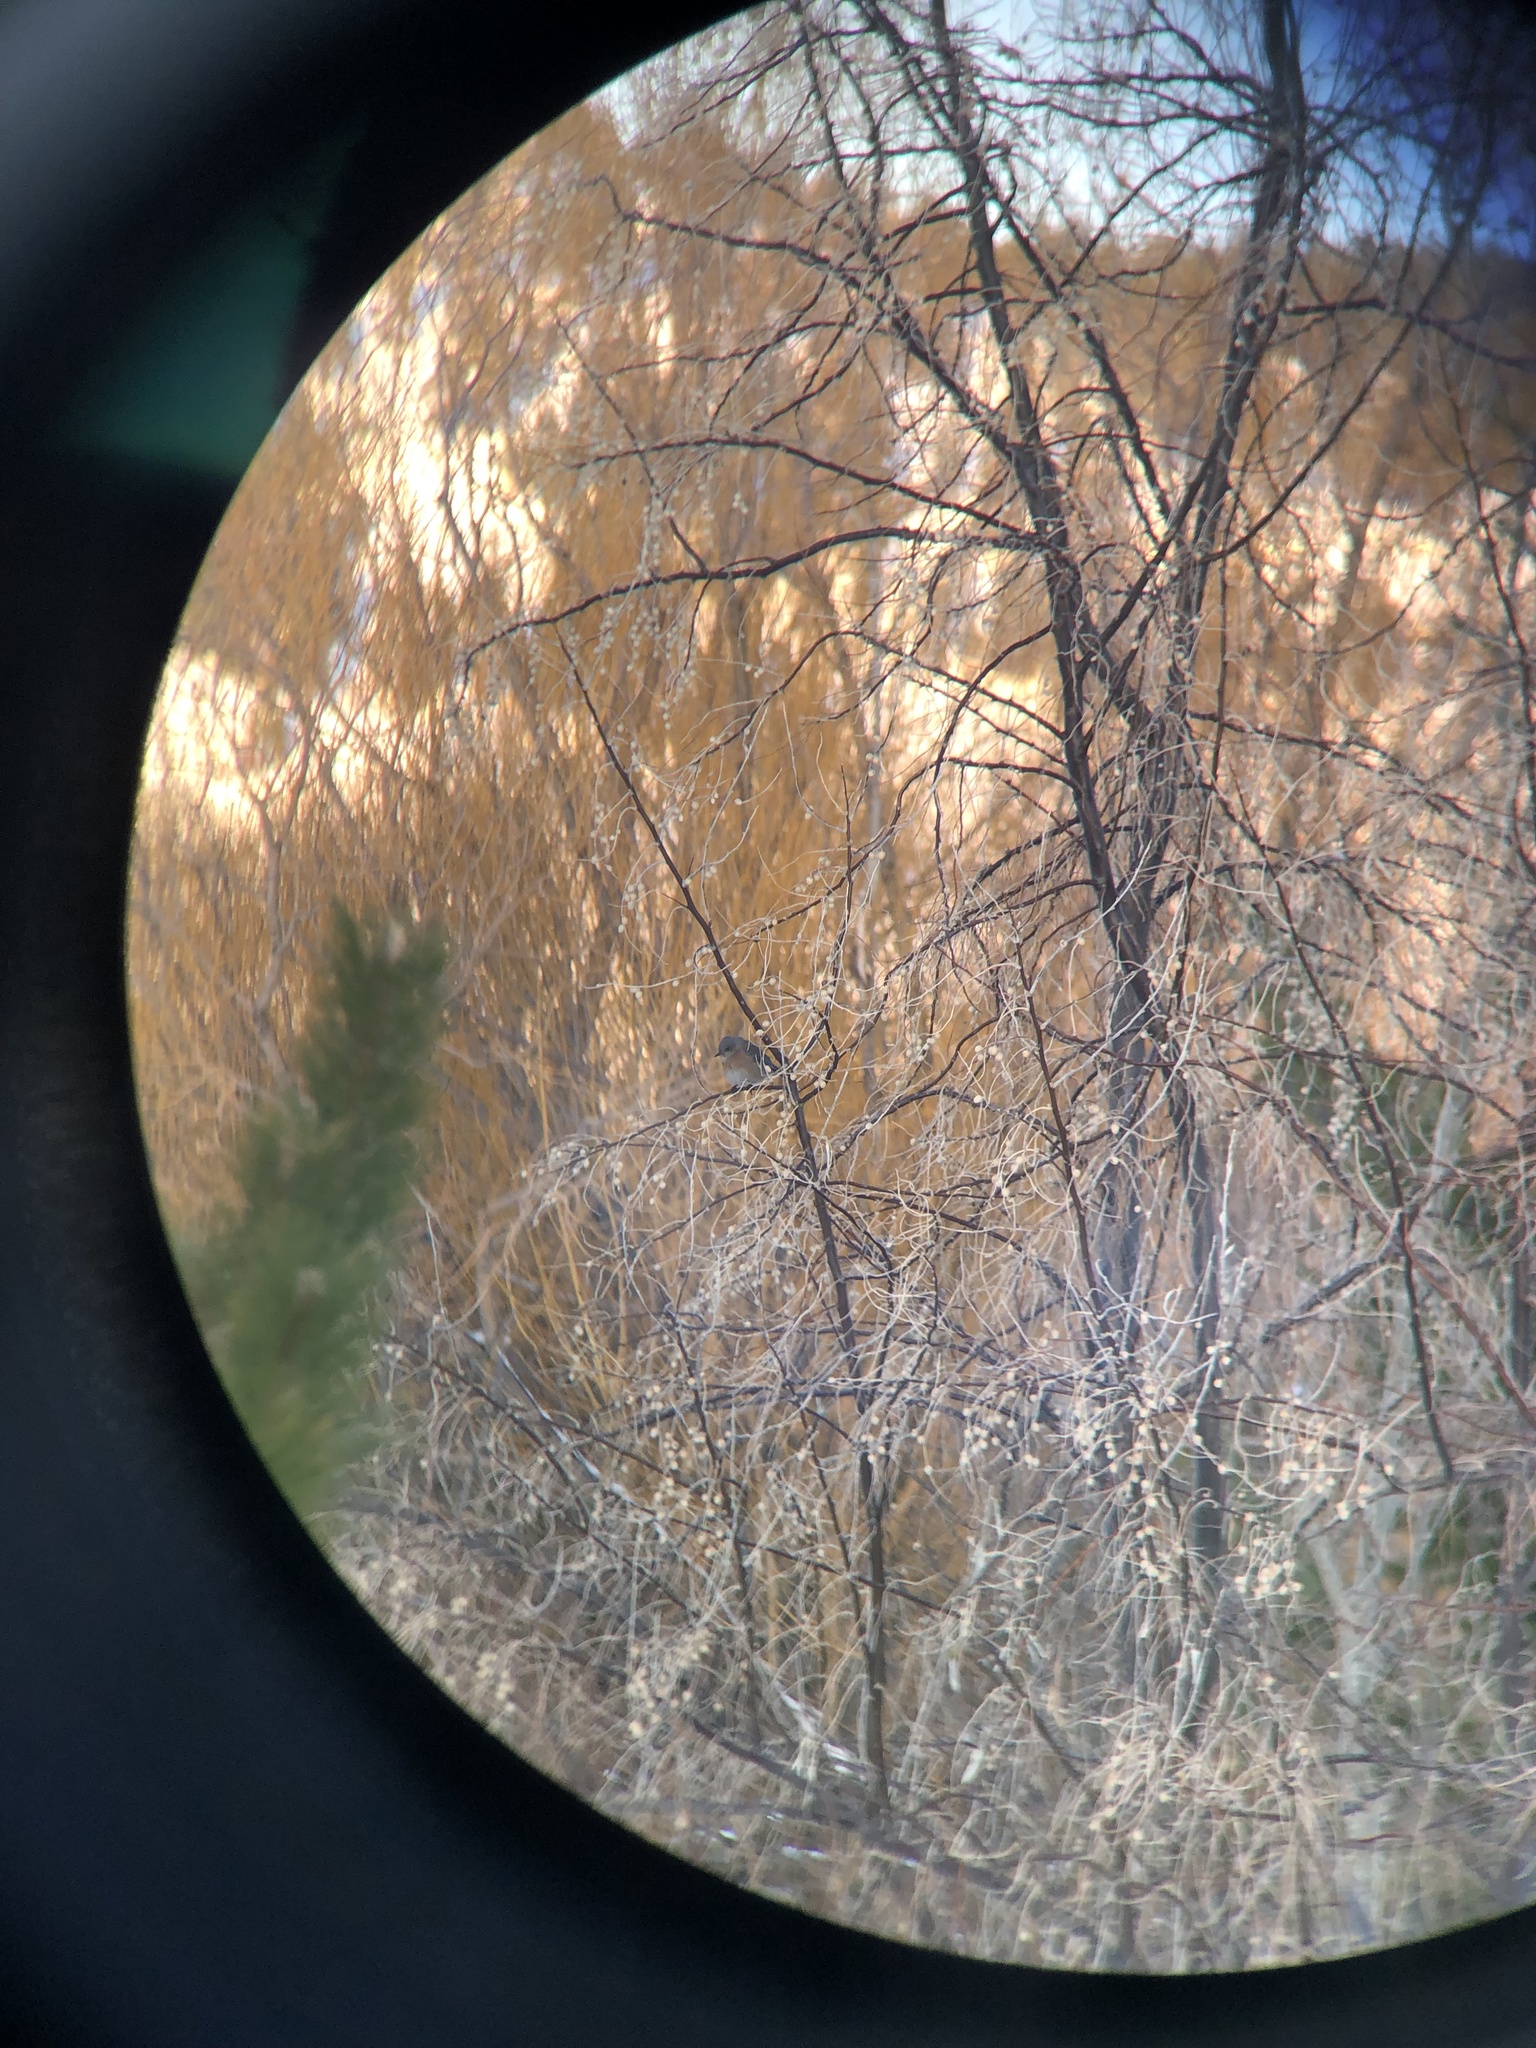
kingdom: Animalia
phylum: Chordata
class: Aves
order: Passeriformes
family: Turdidae
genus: Sialia
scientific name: Sialia mexicana
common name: Western bluebird
